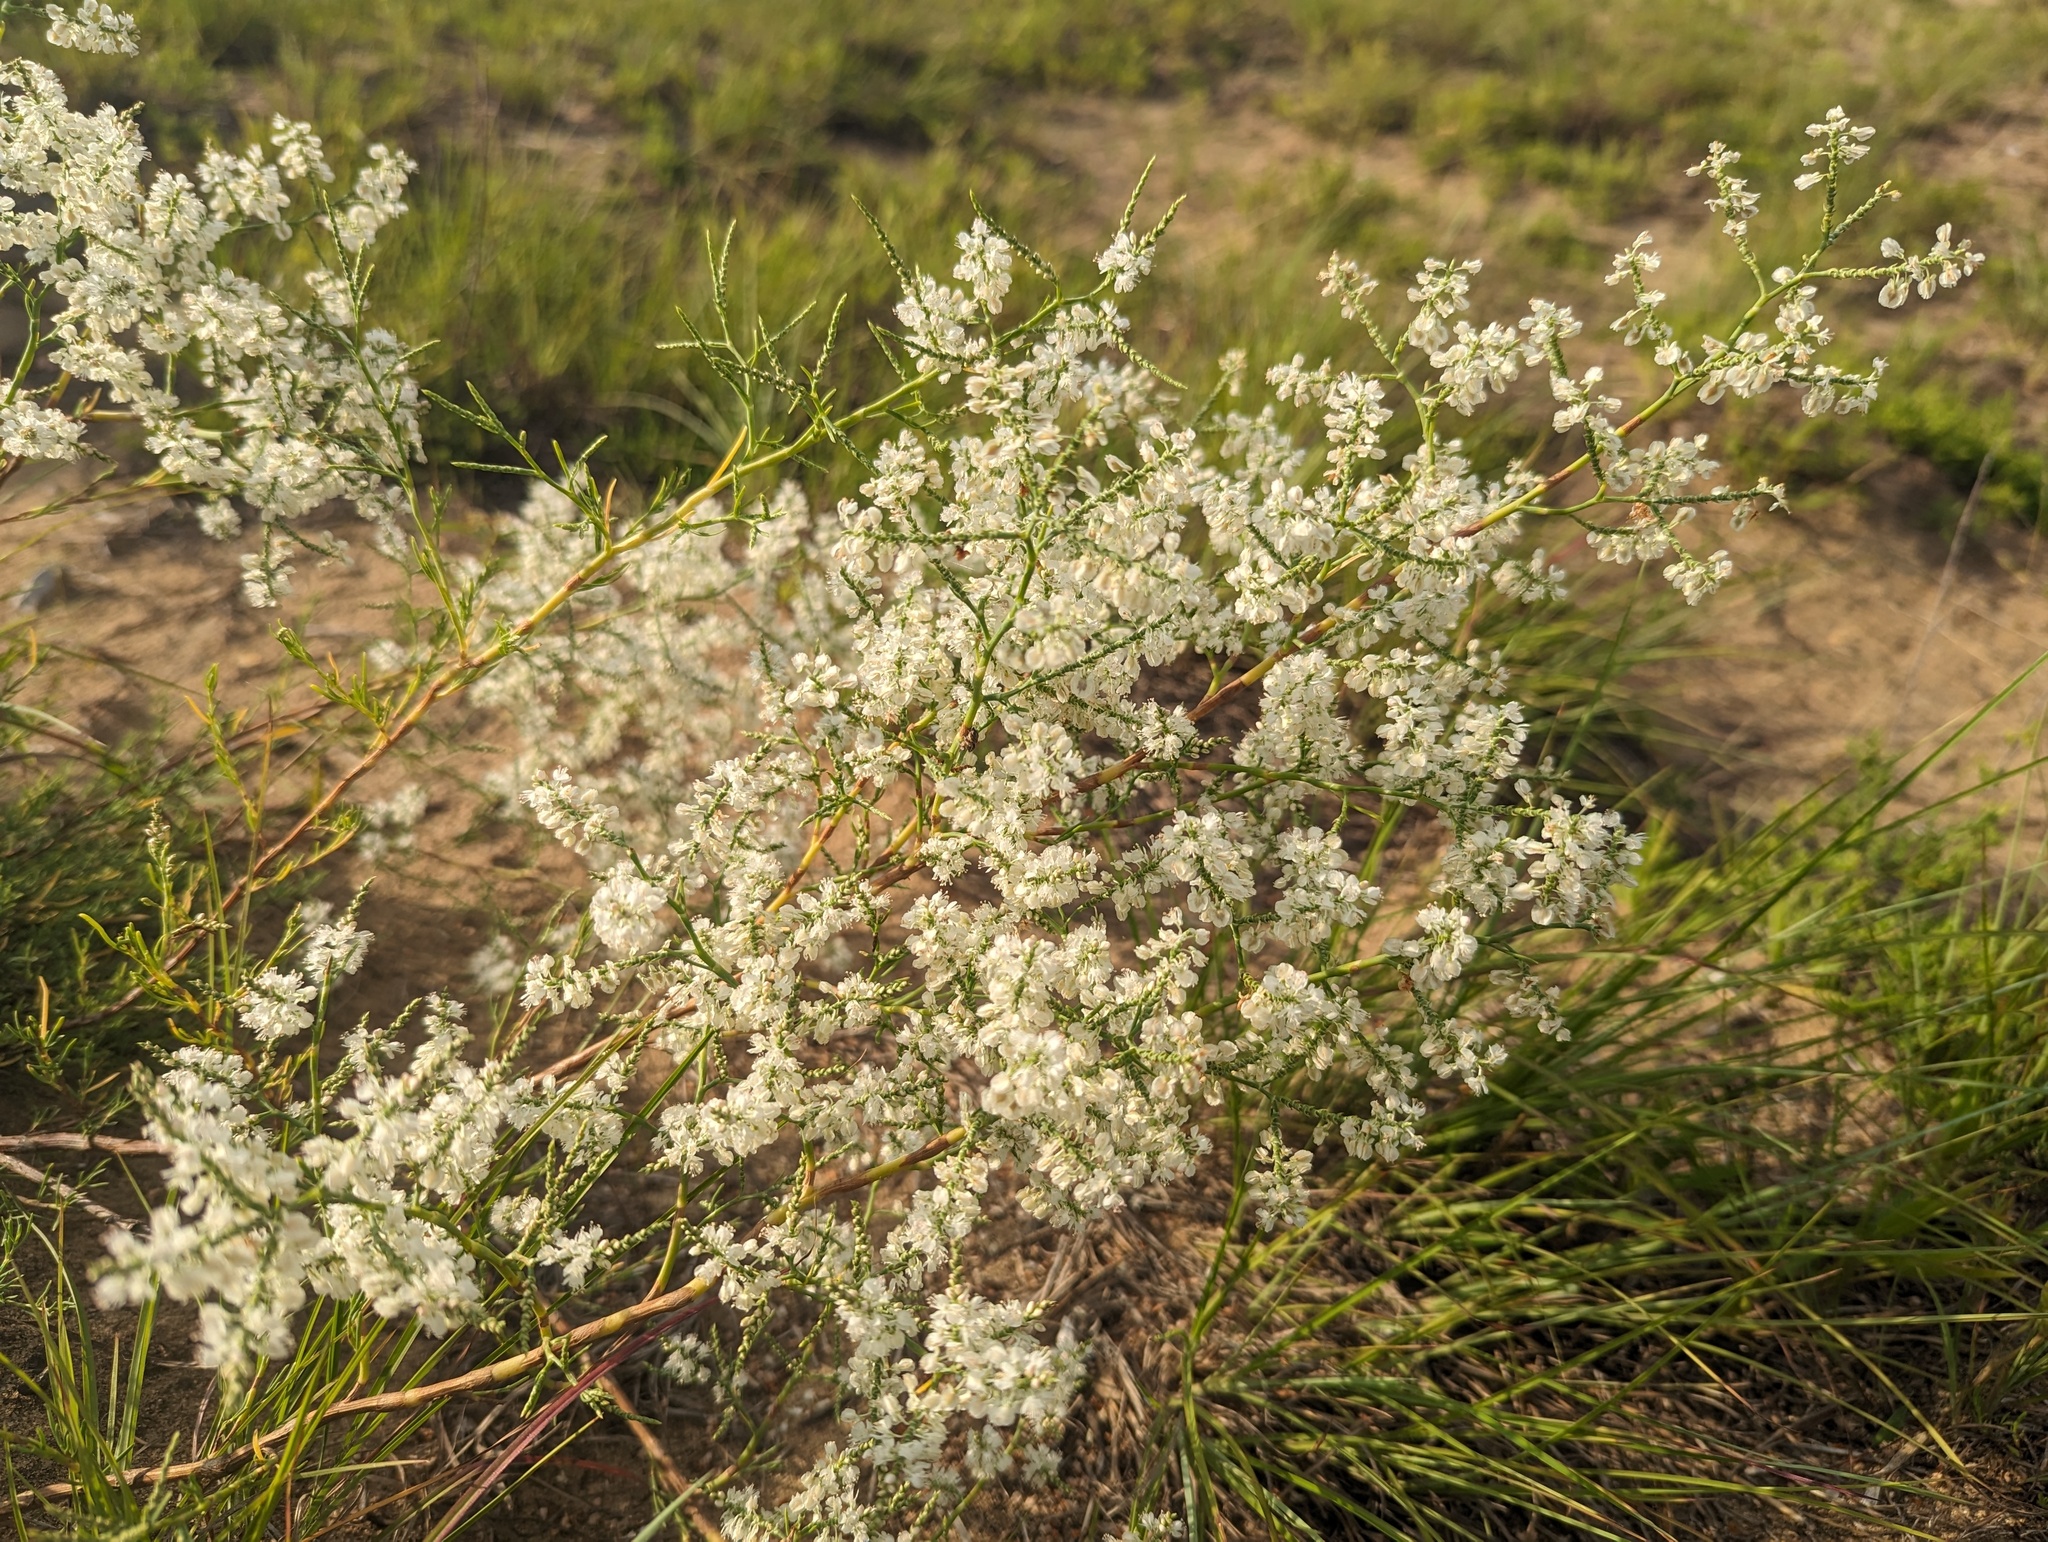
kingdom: Plantae
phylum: Tracheophyta
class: Magnoliopsida
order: Caryophyllales
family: Polygonaceae
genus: Polygonella
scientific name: Polygonella americana
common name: Southern jointweed
